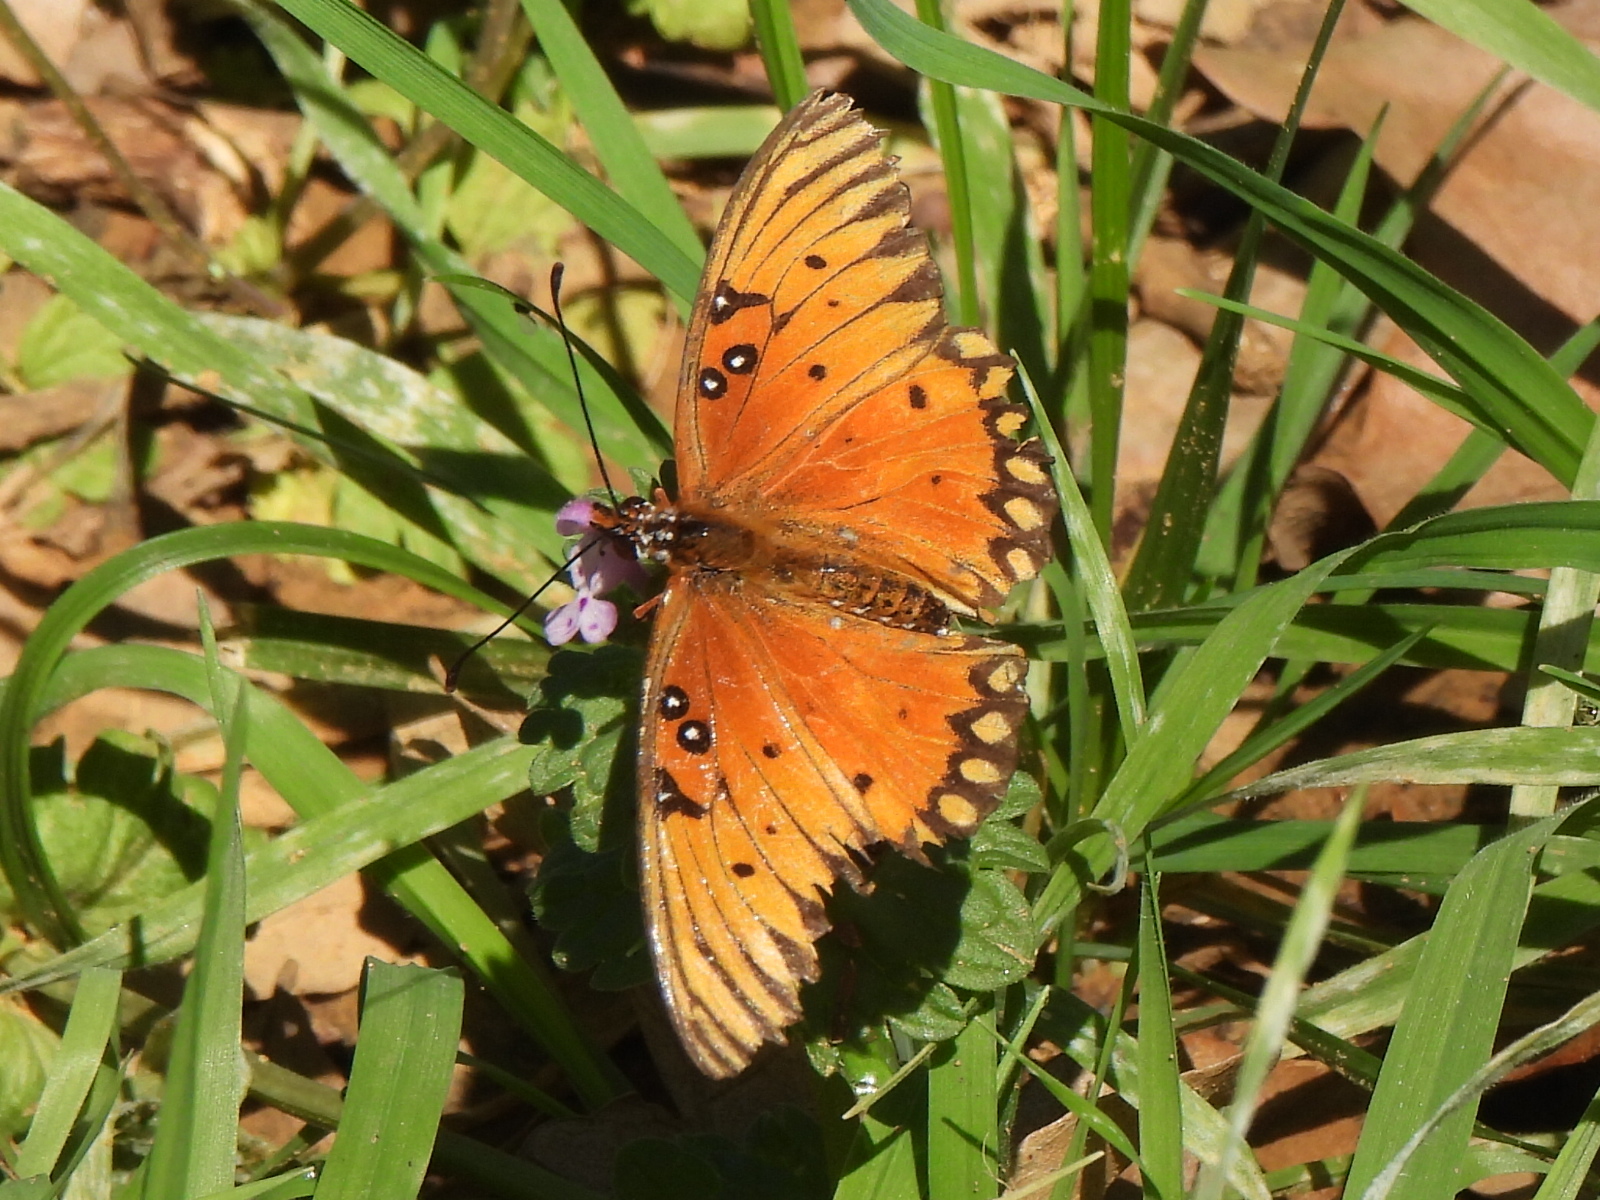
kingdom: Animalia
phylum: Arthropoda
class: Insecta
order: Lepidoptera
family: Nymphalidae
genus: Dione
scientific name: Dione vanillae
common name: Gulf fritillary
